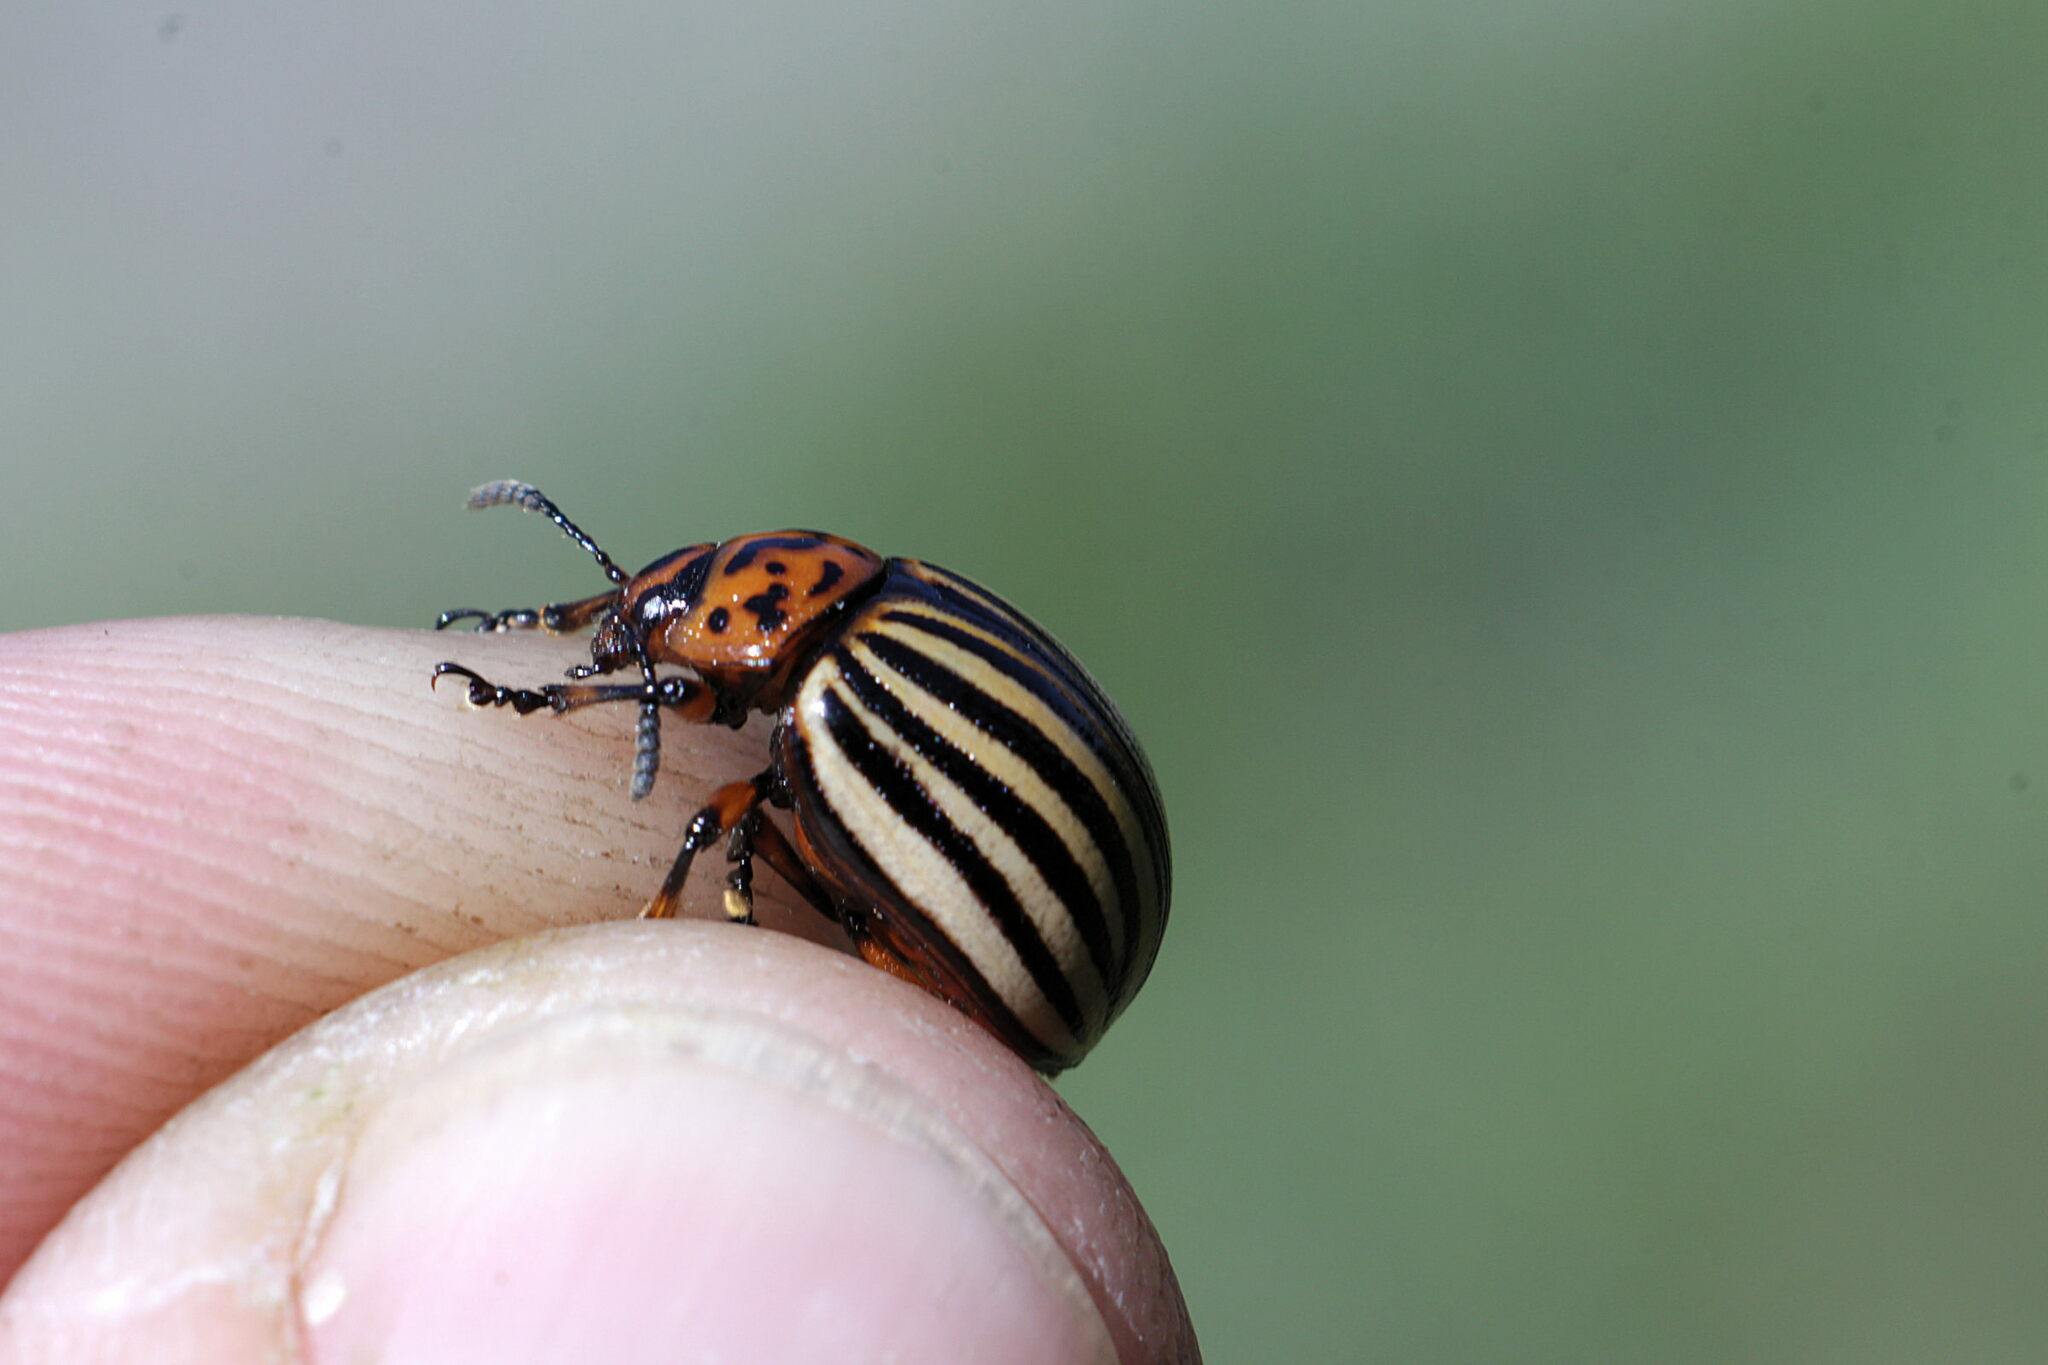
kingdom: Animalia
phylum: Arthropoda
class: Insecta
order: Coleoptera
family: Chrysomelidae
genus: Leptinotarsa
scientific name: Leptinotarsa decemlineata
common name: Colorado potato beetle
